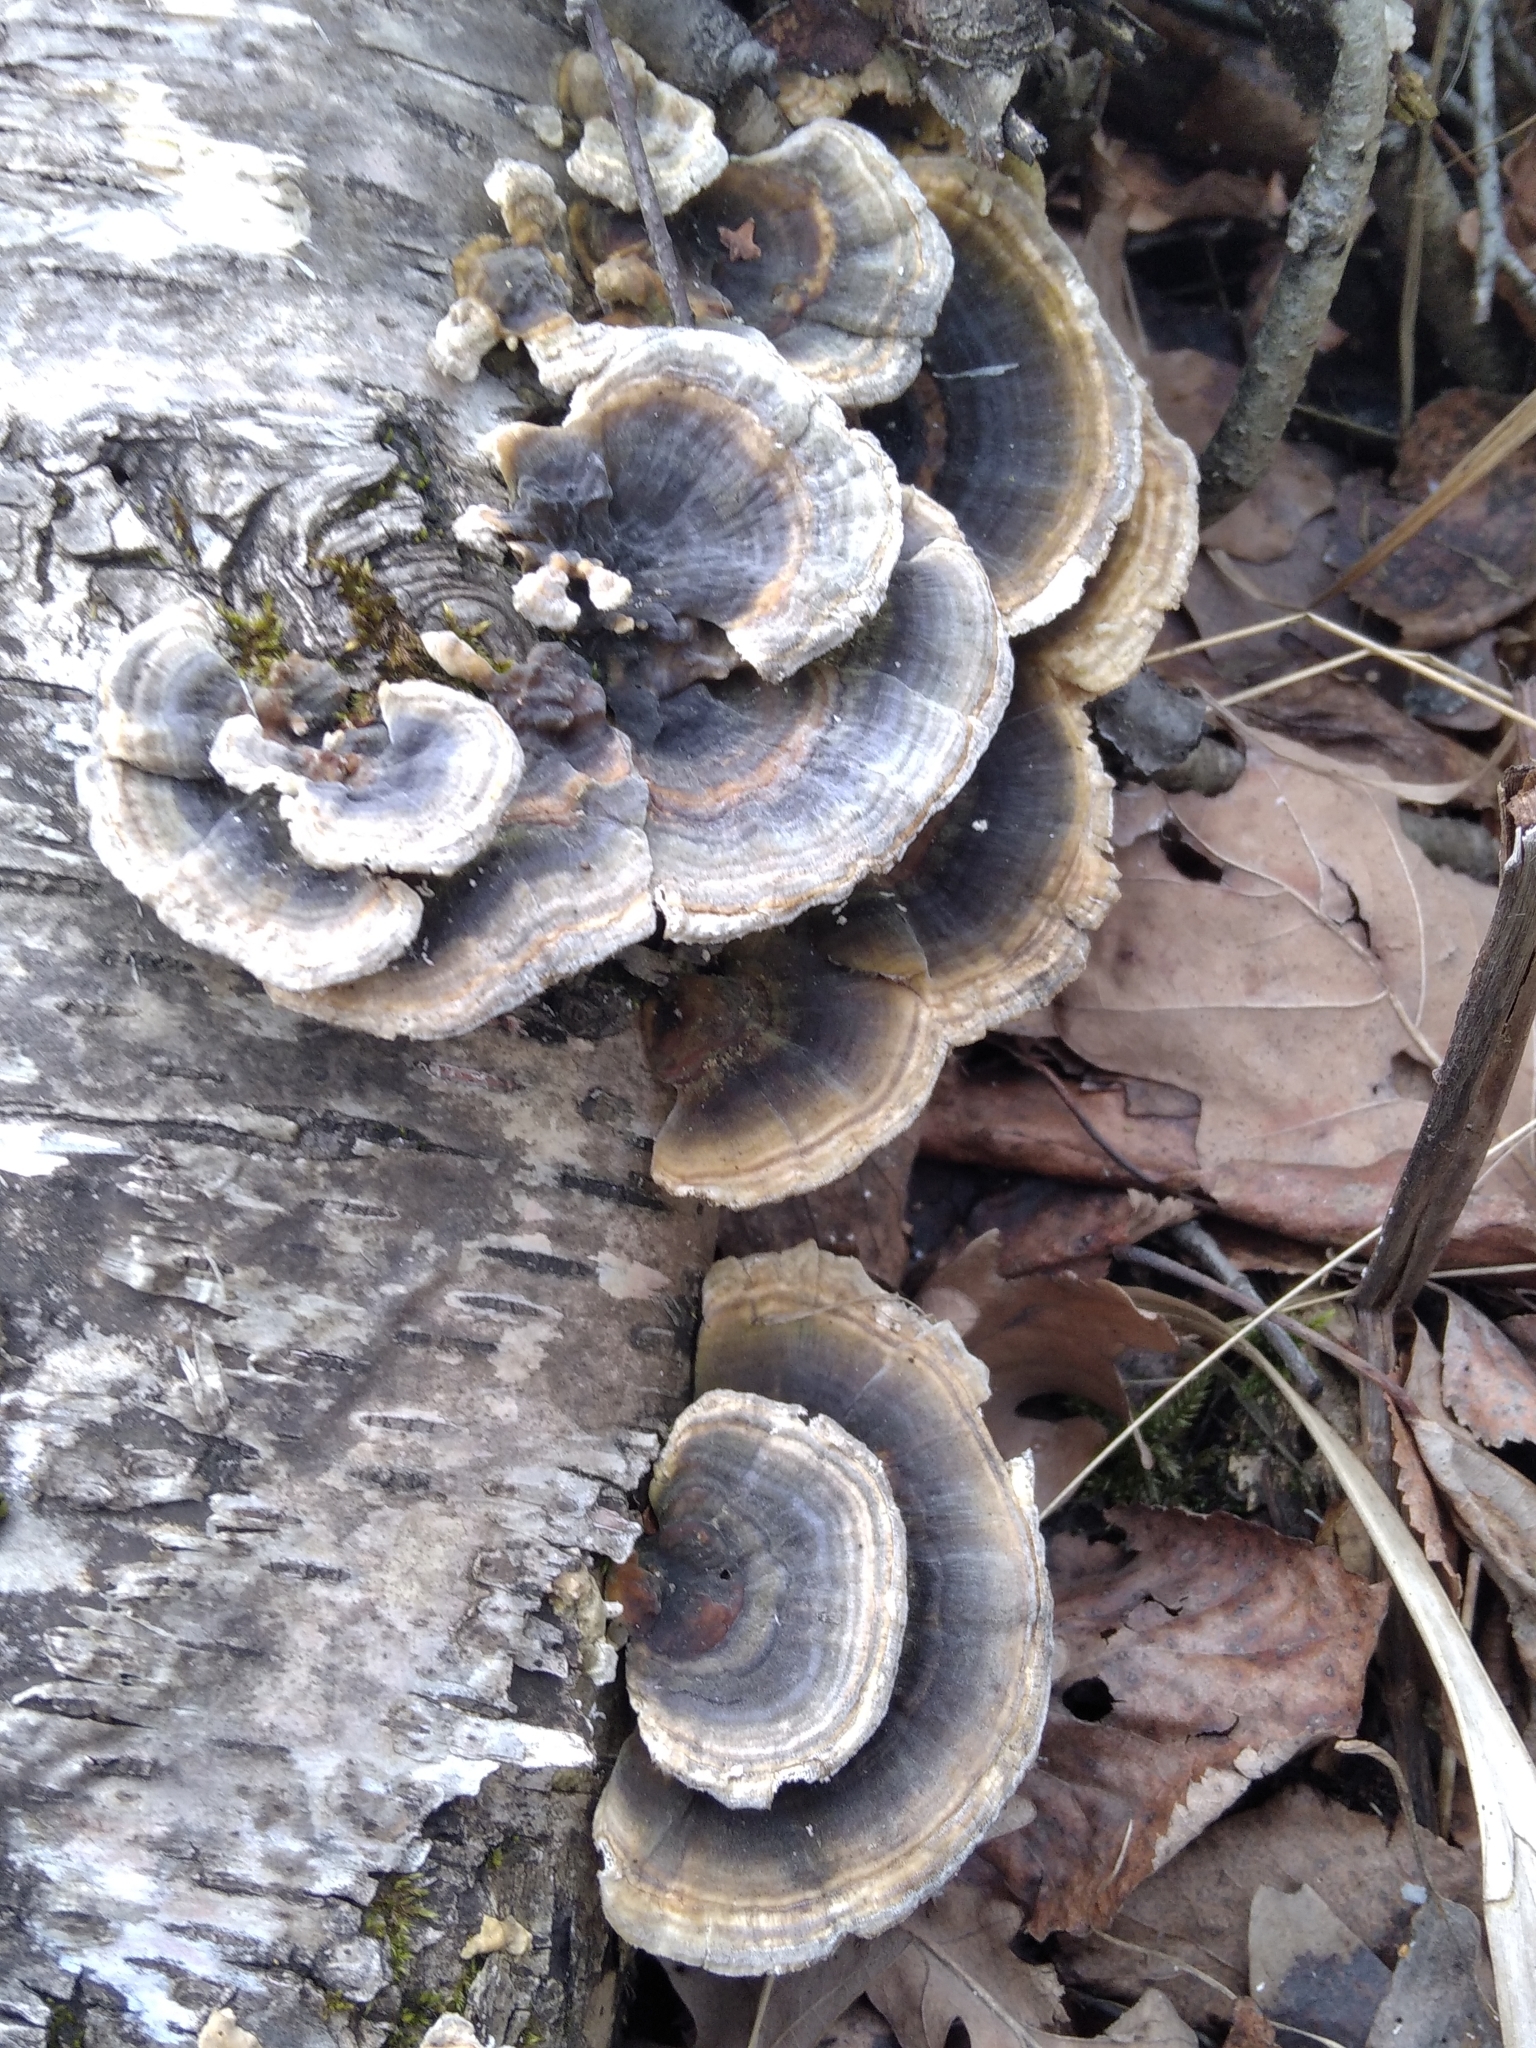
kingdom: Fungi
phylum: Basidiomycota
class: Agaricomycetes
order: Polyporales
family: Polyporaceae
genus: Trametes
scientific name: Trametes versicolor
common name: Turkeytail
